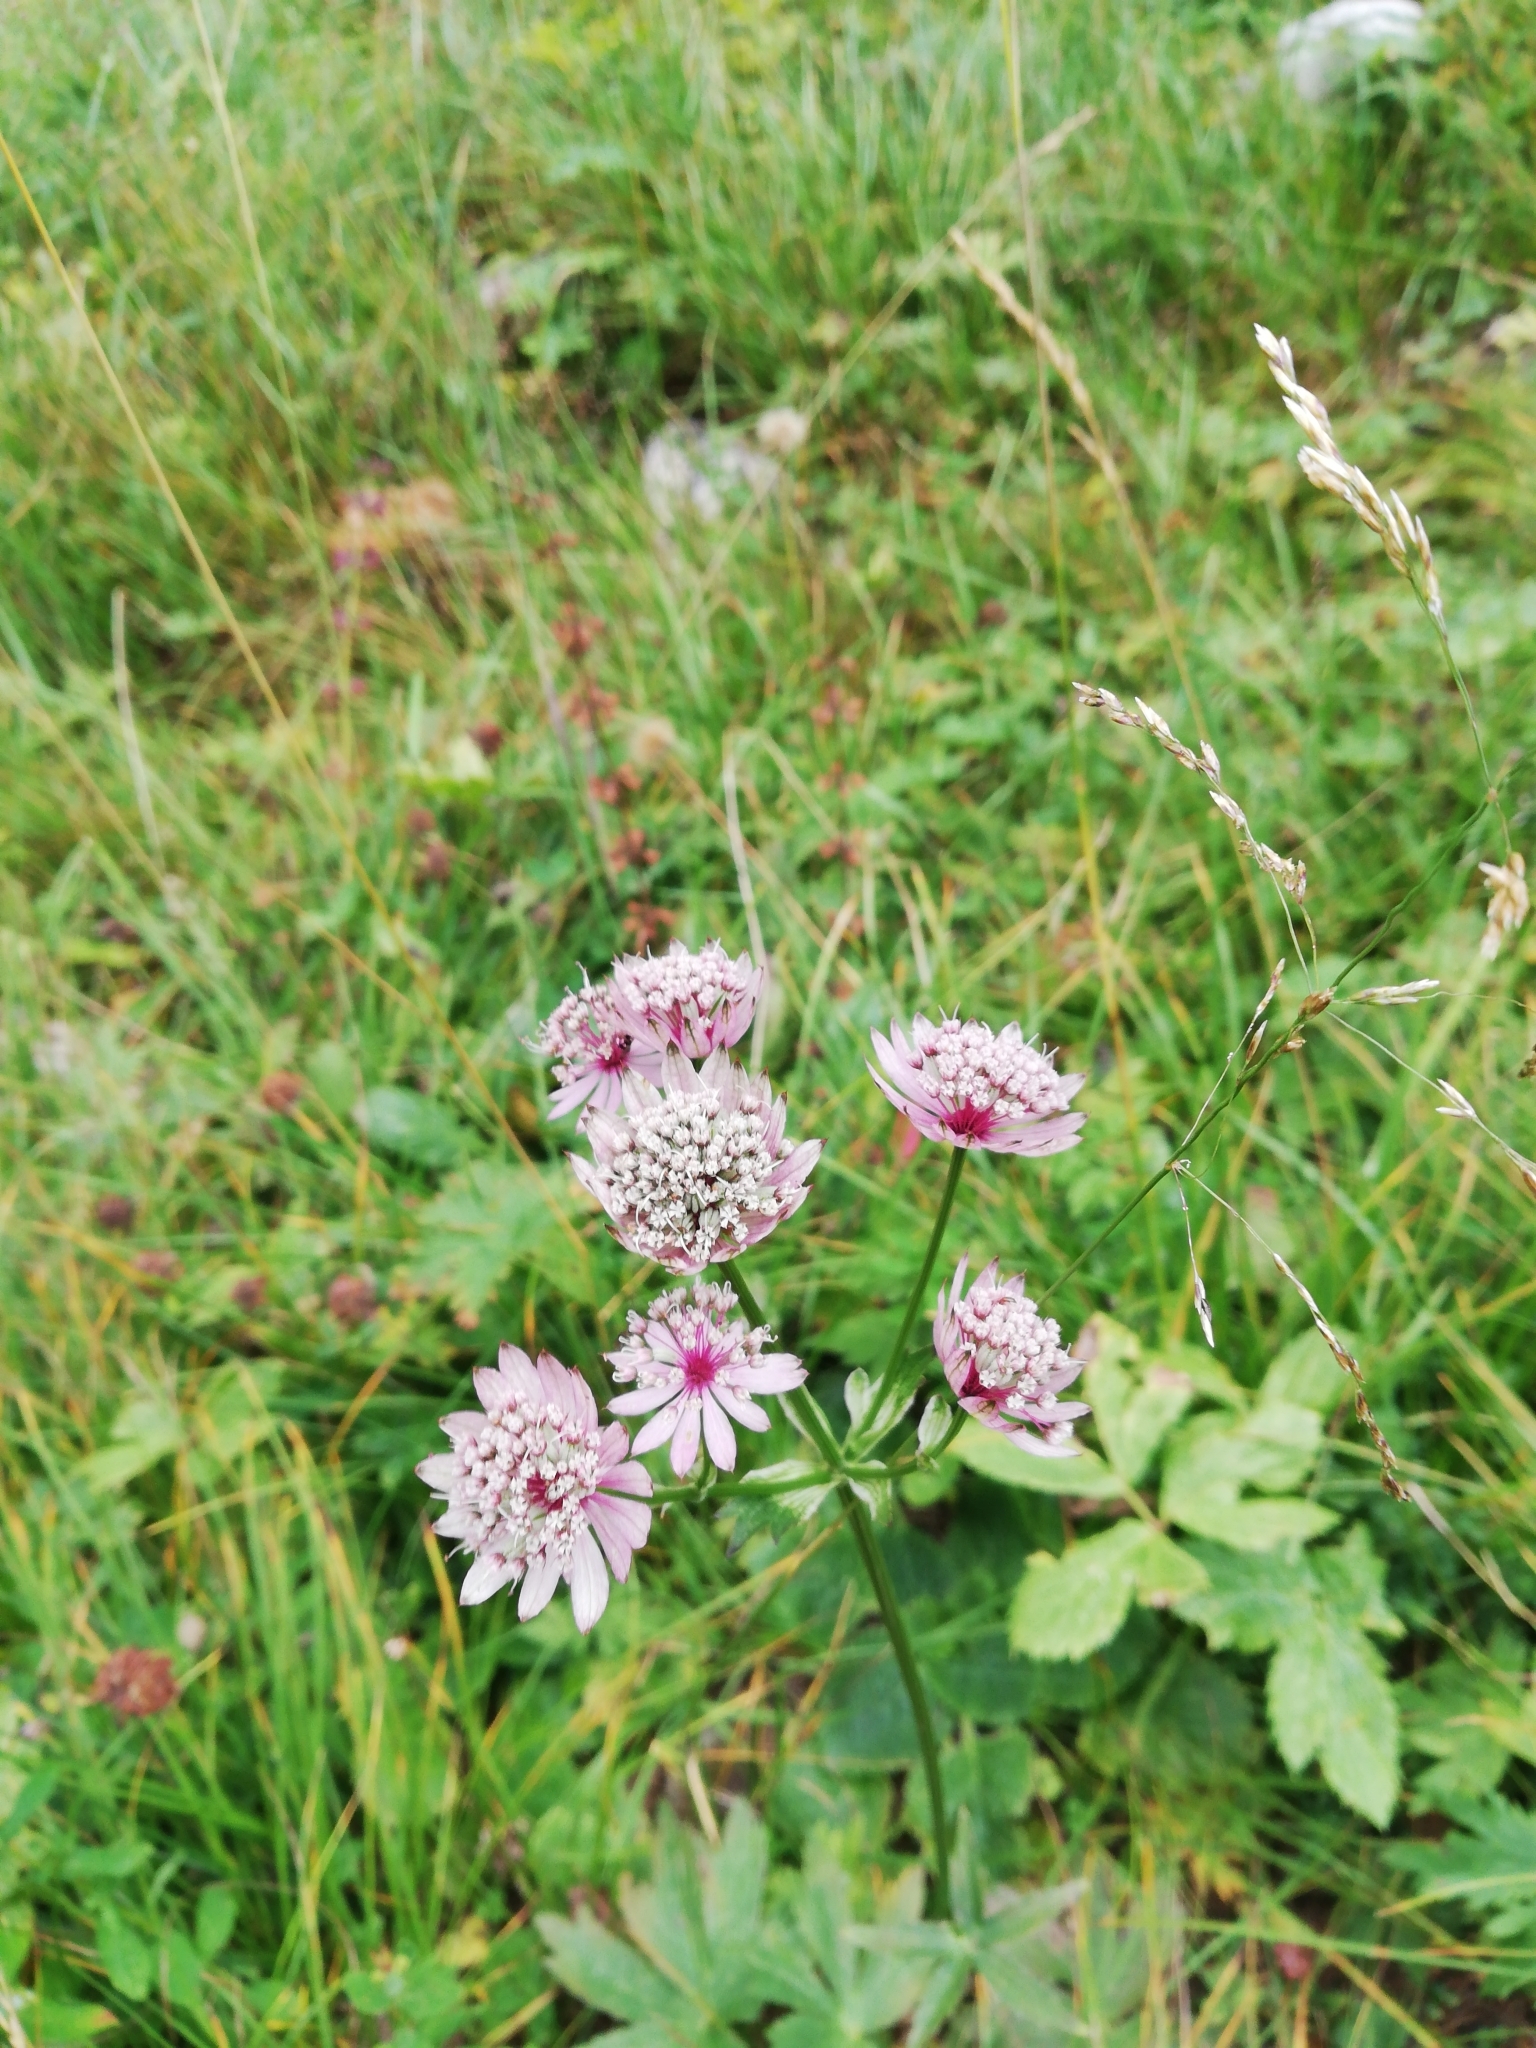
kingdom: Plantae
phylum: Tracheophyta
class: Magnoliopsida
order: Apiales
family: Apiaceae
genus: Astrantia
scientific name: Astrantia major
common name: Greater masterwort
